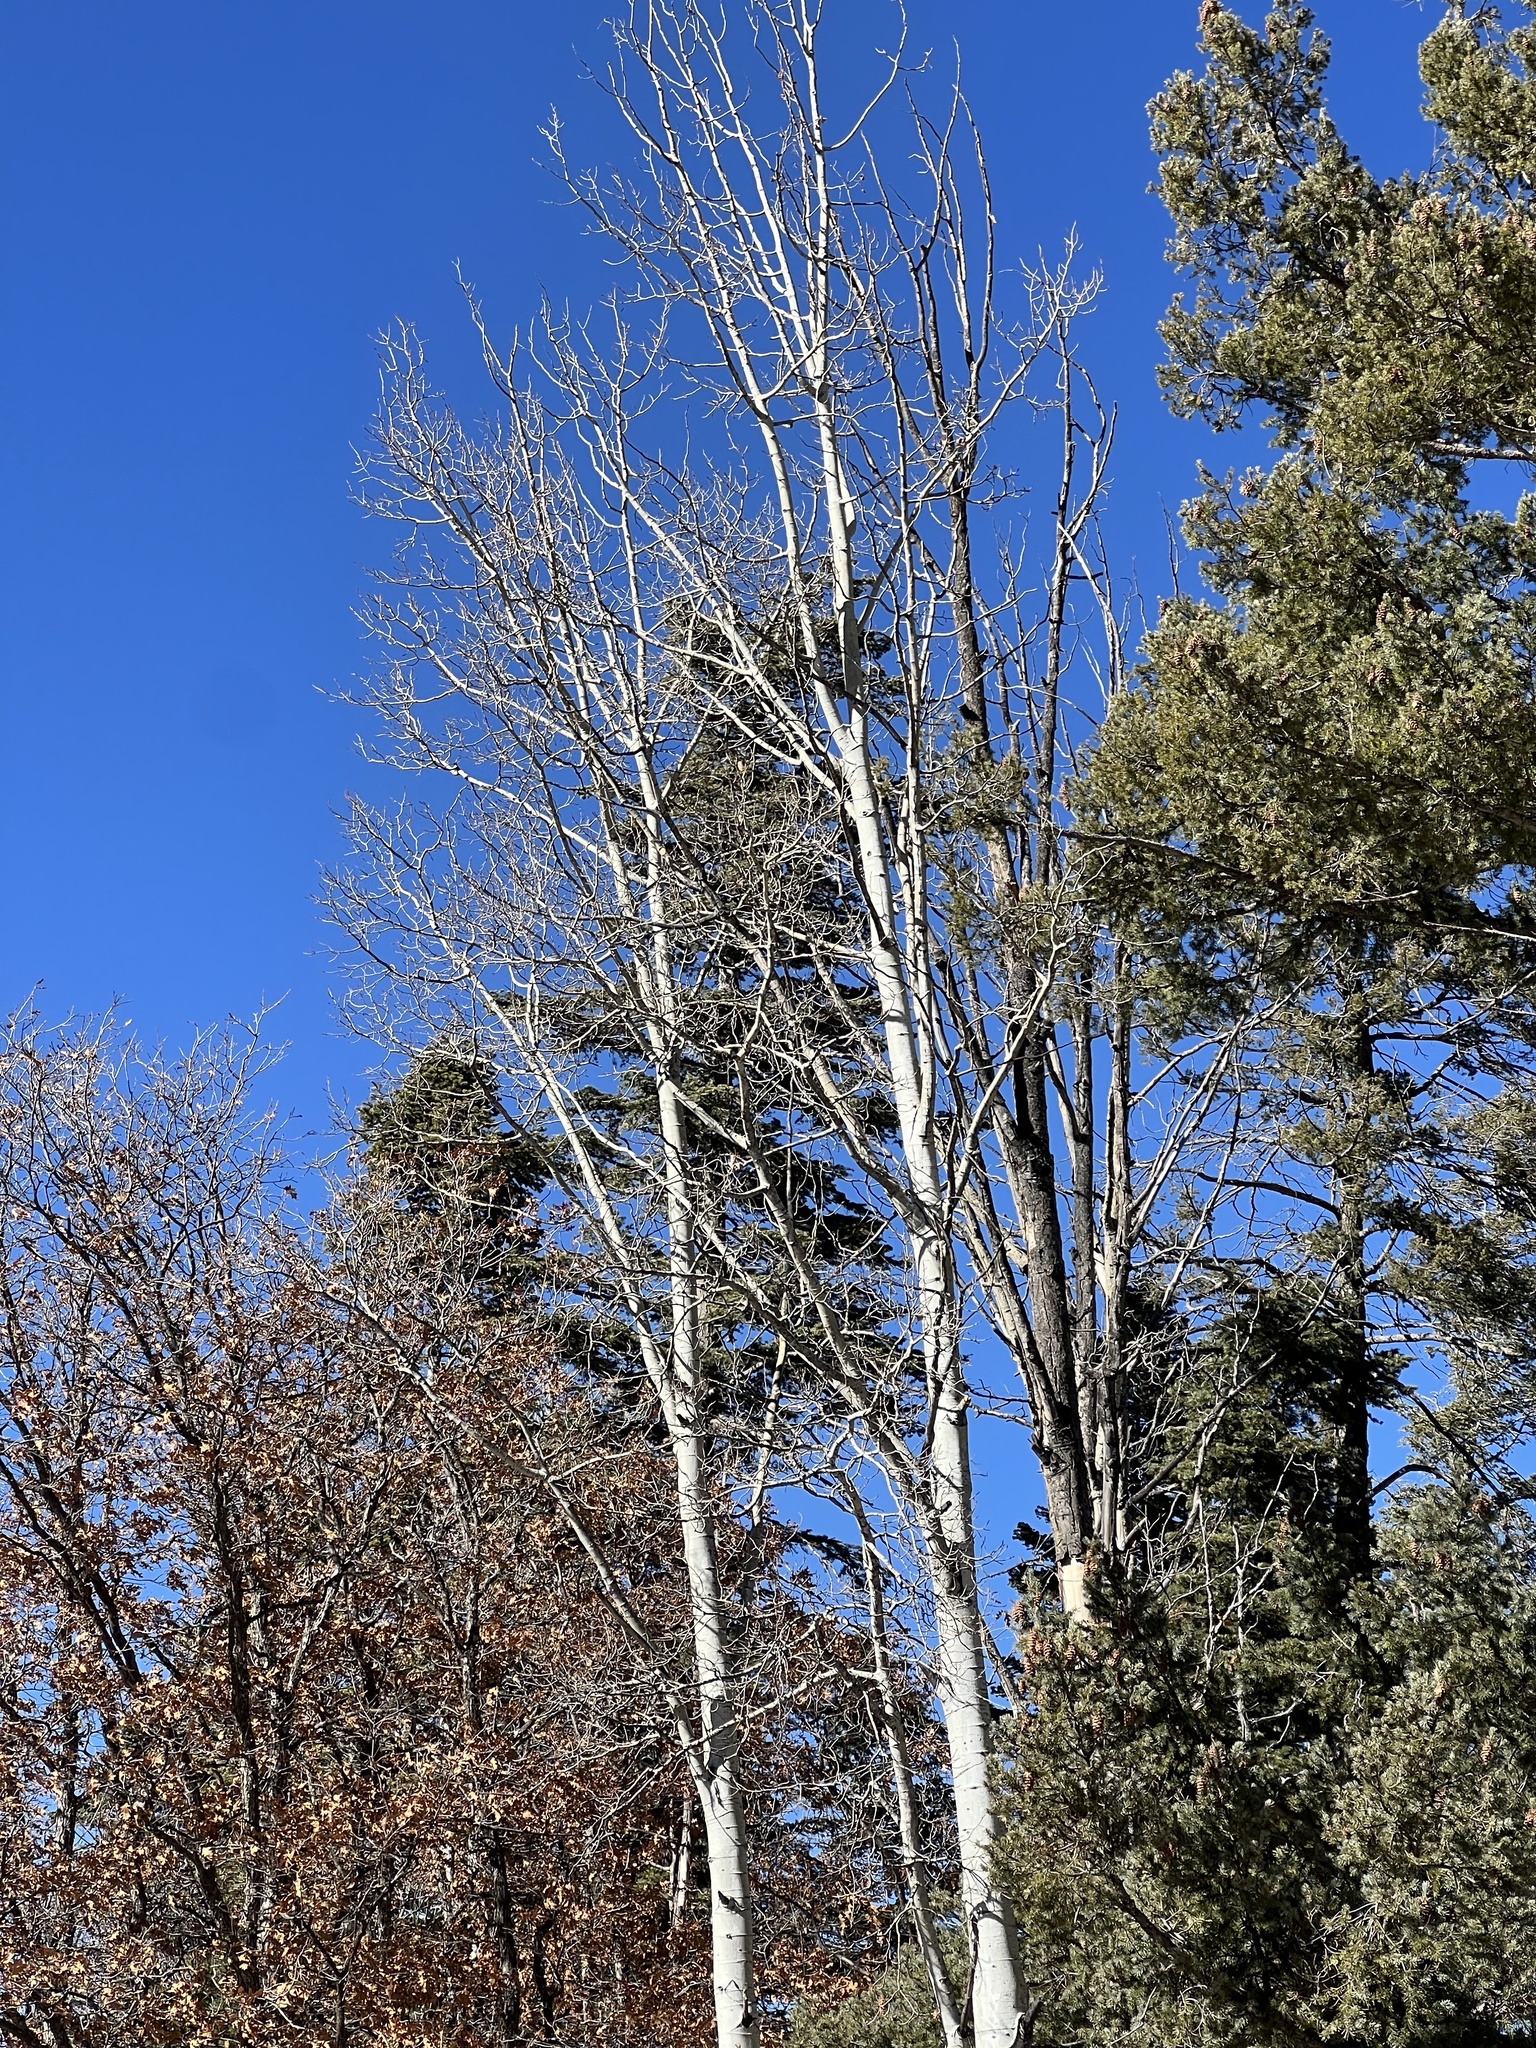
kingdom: Plantae
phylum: Tracheophyta
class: Magnoliopsida
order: Malpighiales
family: Salicaceae
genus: Populus
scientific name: Populus tremuloides
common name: Quaking aspen
